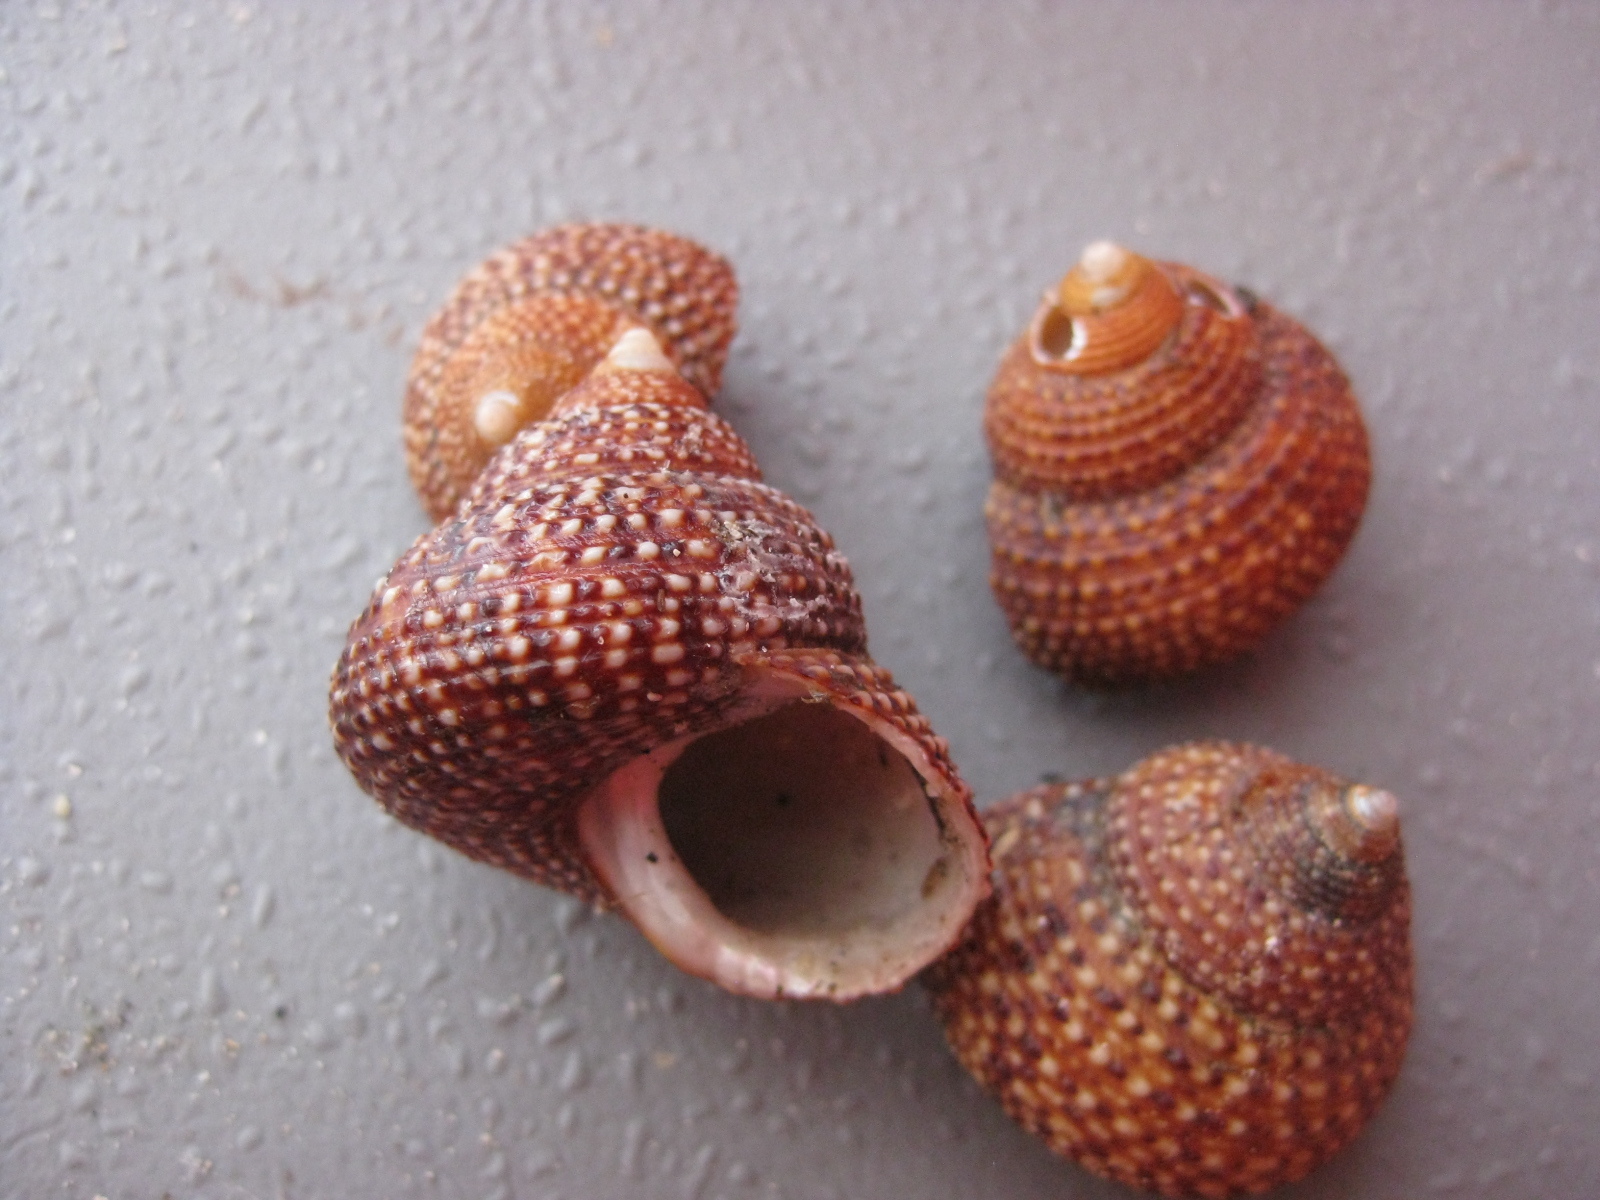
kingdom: Animalia
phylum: Mollusca
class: Gastropoda
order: Trochida
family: Calliostomatidae
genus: Maurea
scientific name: Maurea punctulata
